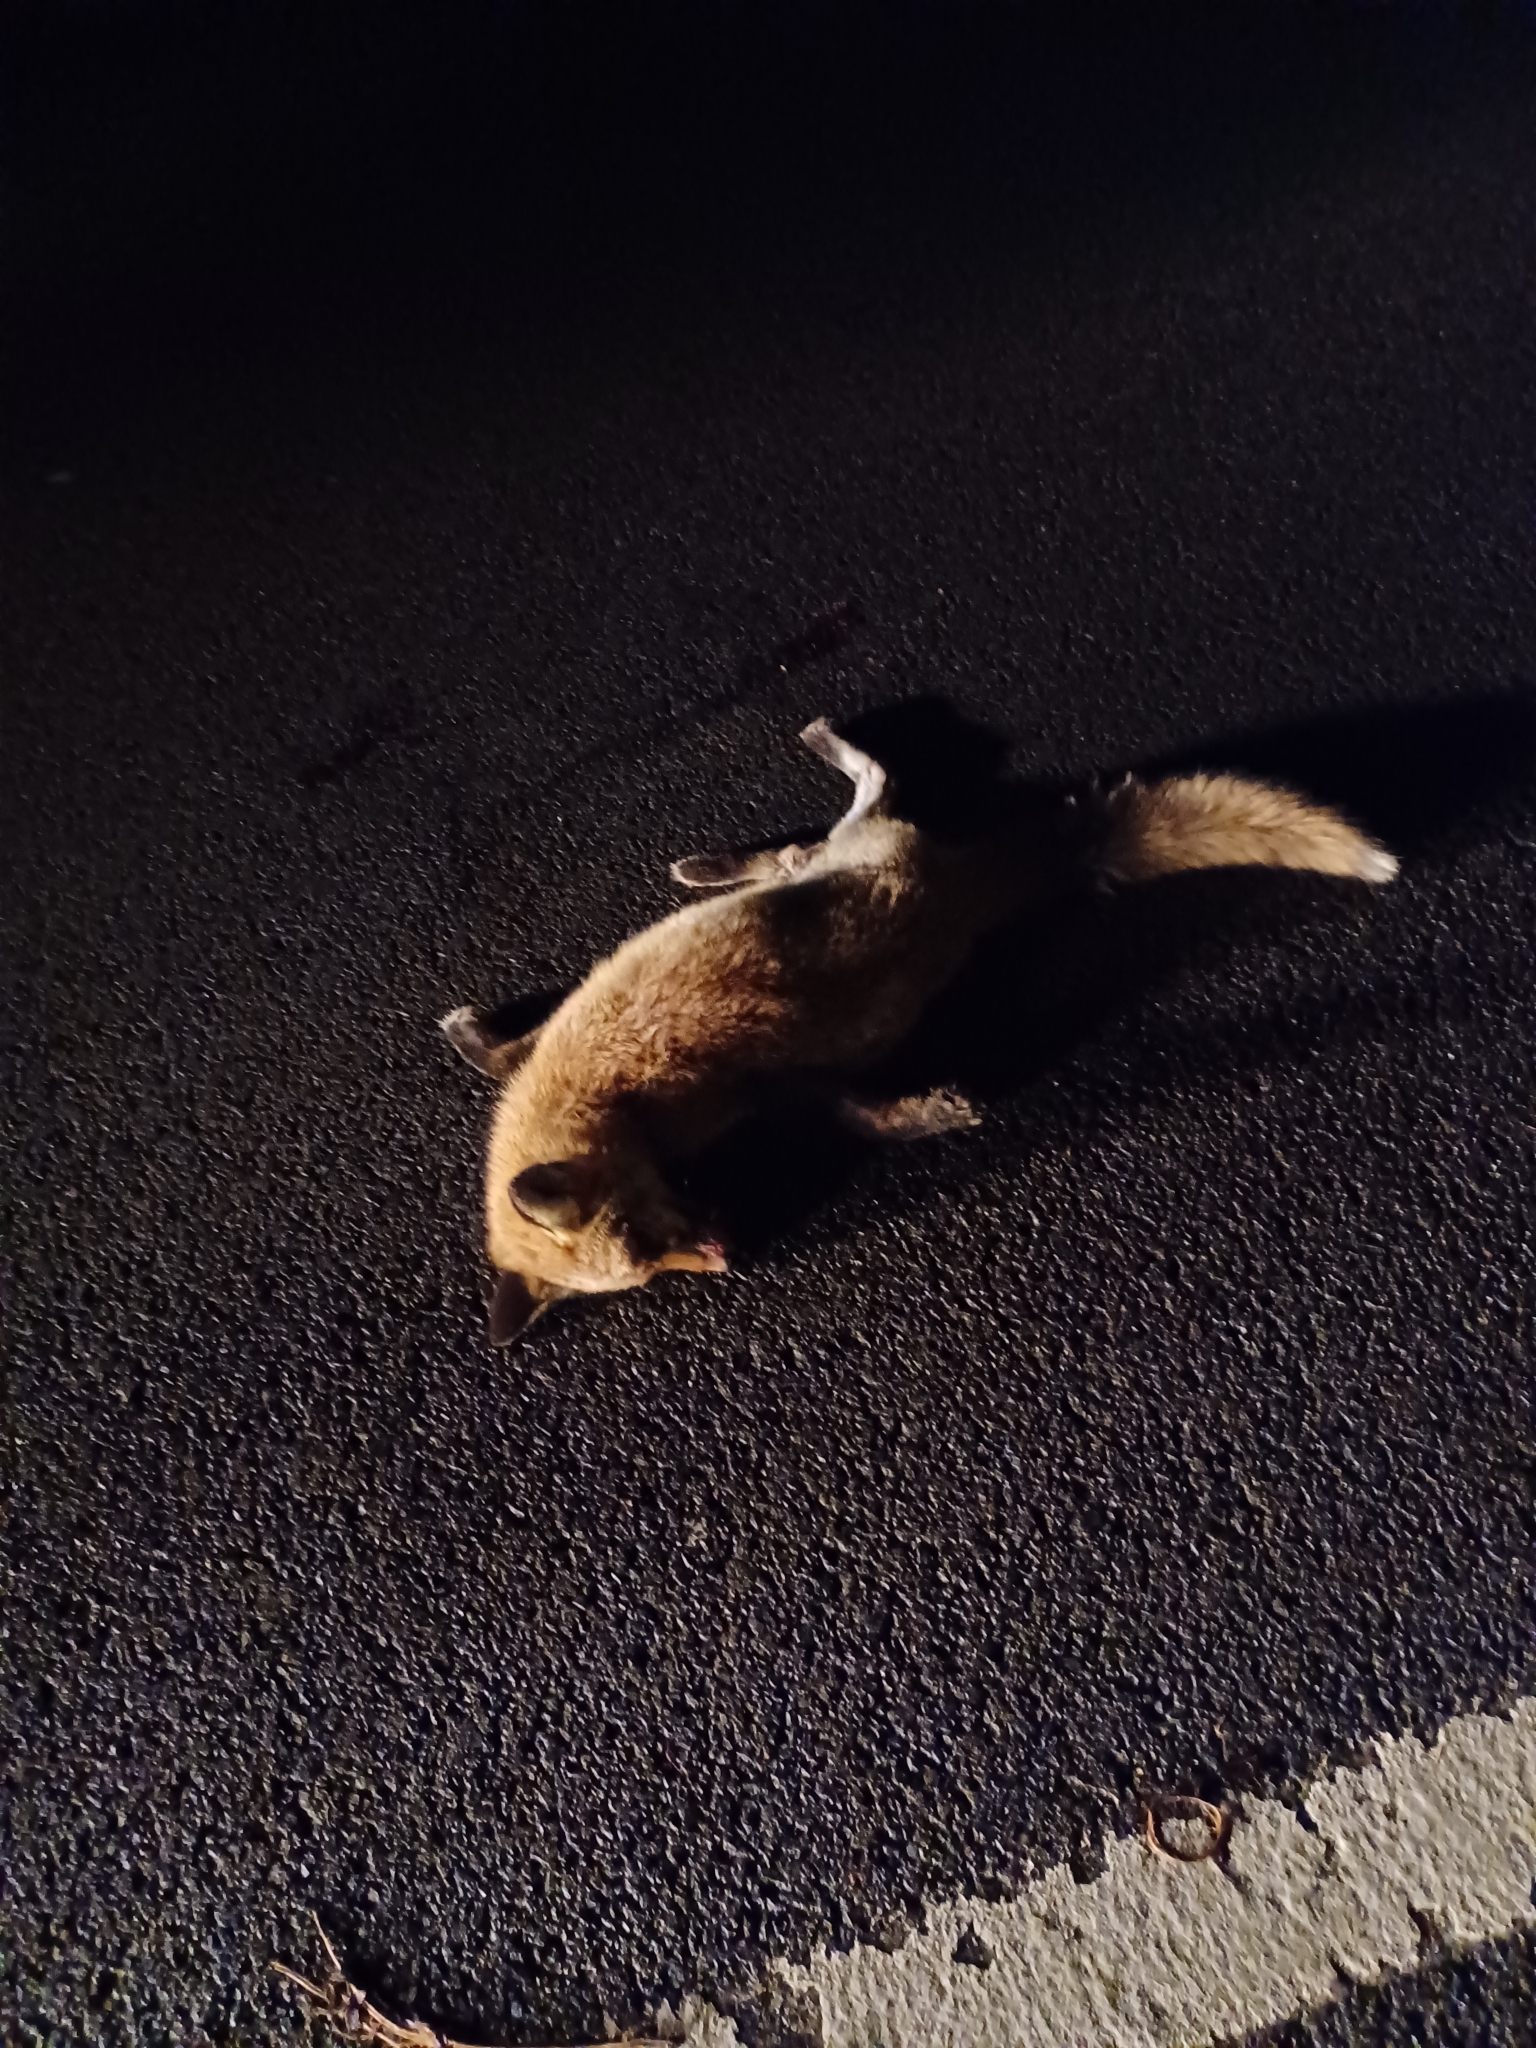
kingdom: Animalia
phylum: Chordata
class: Mammalia
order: Carnivora
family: Canidae
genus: Vulpes
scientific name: Vulpes vulpes
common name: Red fox
